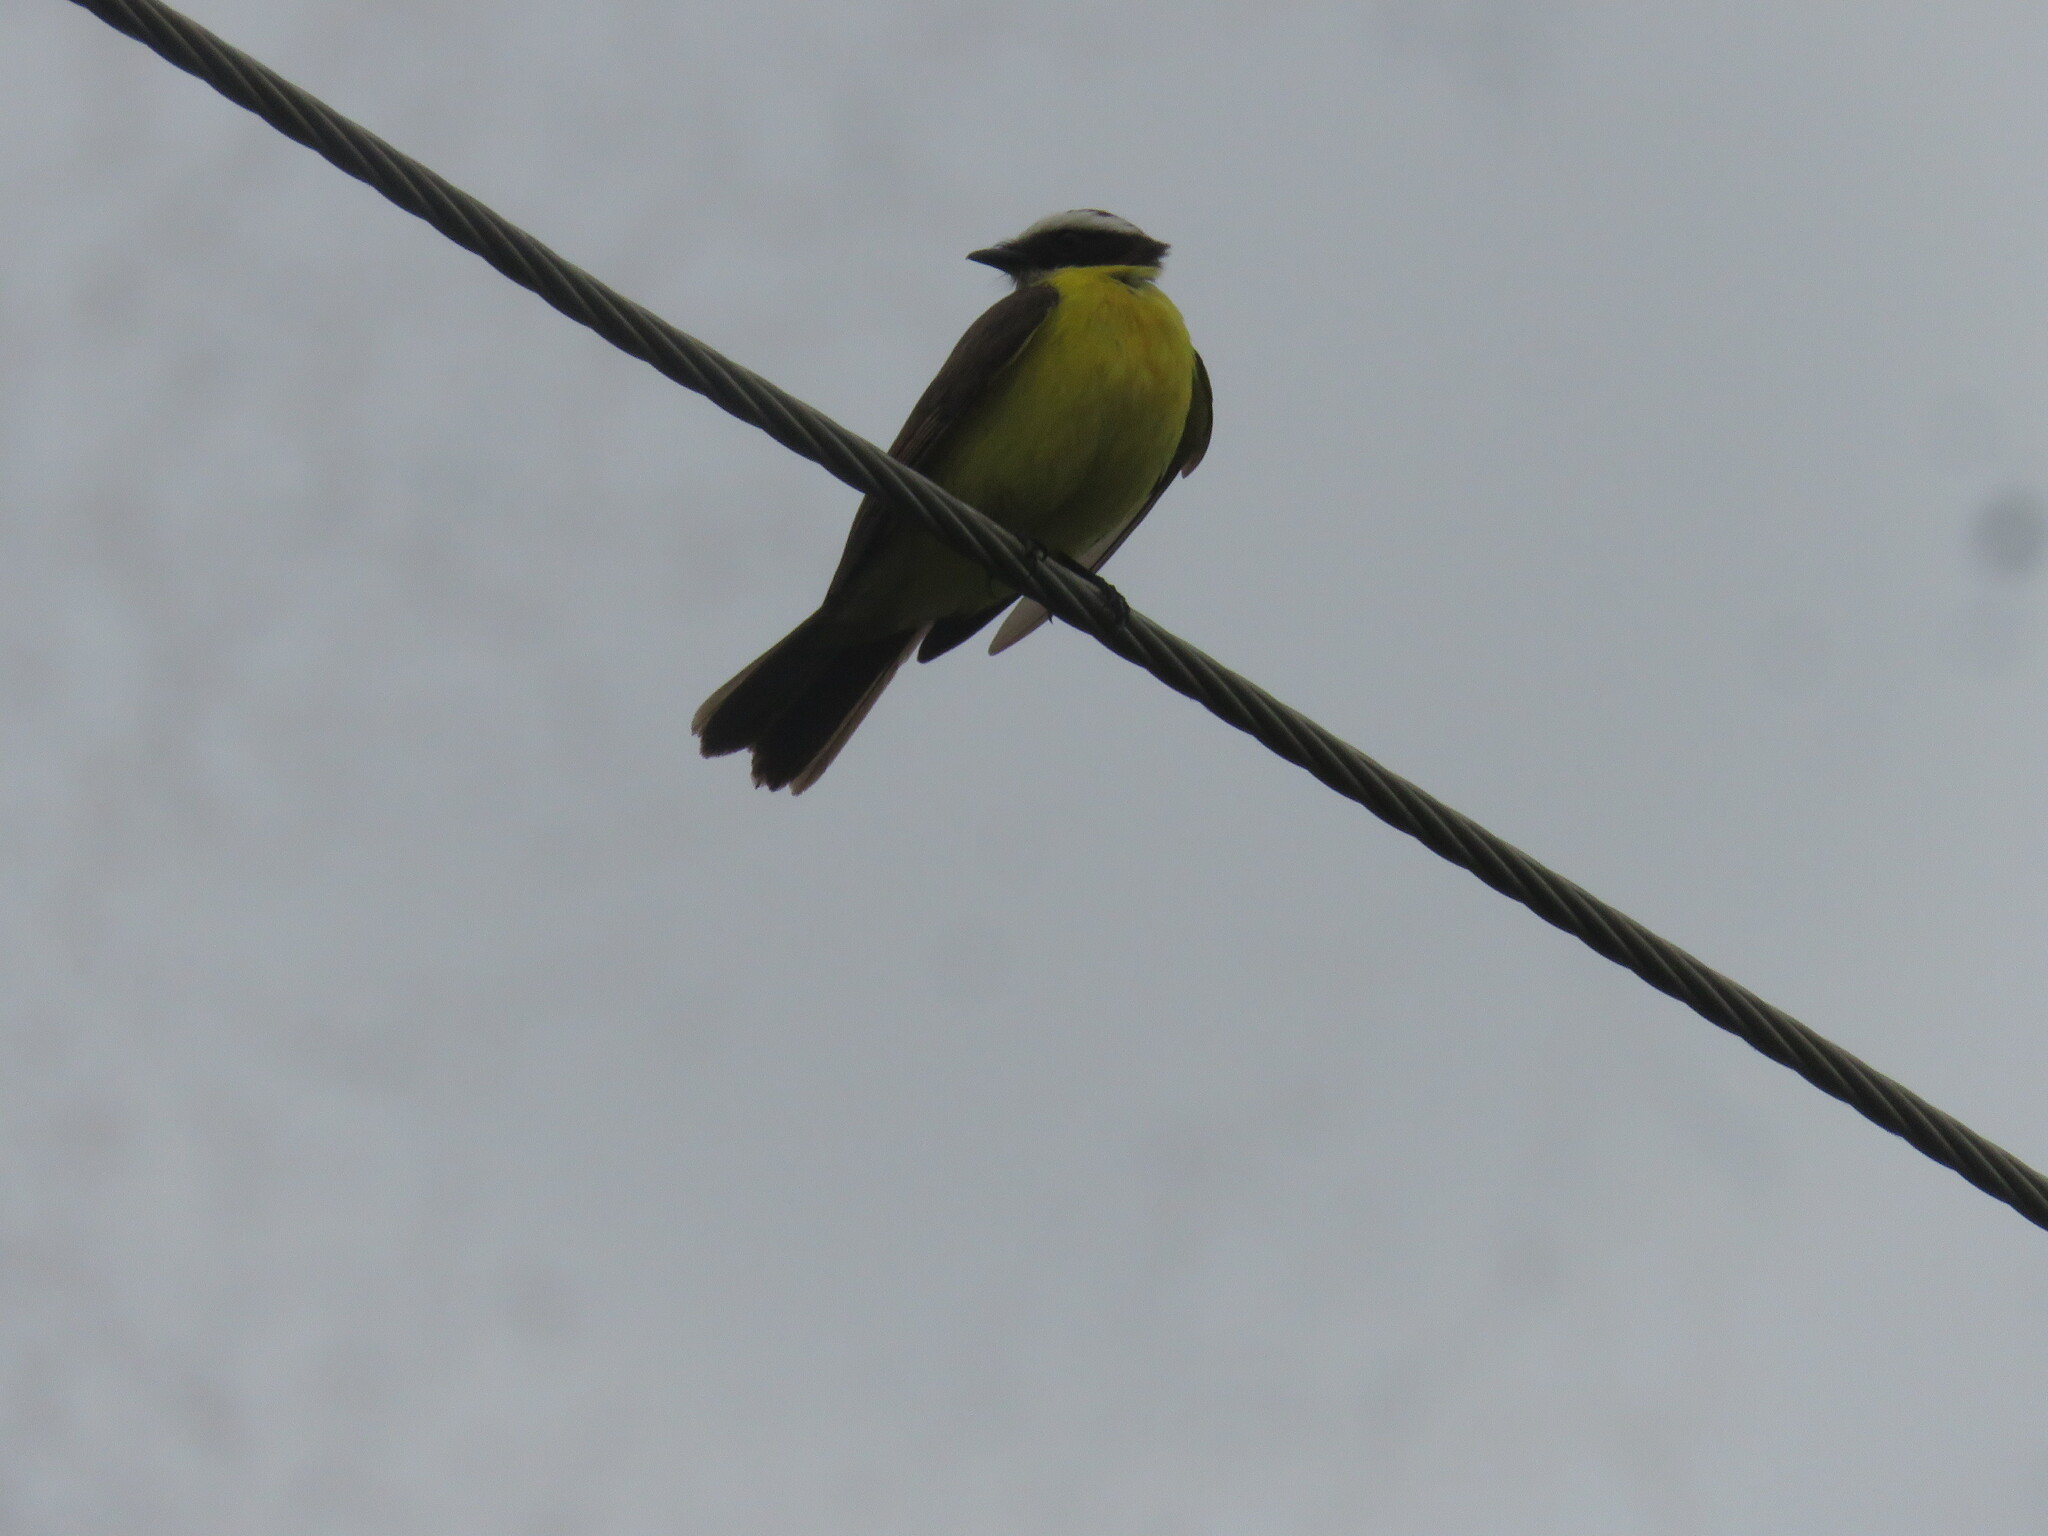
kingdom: Animalia
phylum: Chordata
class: Aves
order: Passeriformes
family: Tyrannidae
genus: Myiozetetes
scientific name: Myiozetetes similis
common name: Social flycatcher
